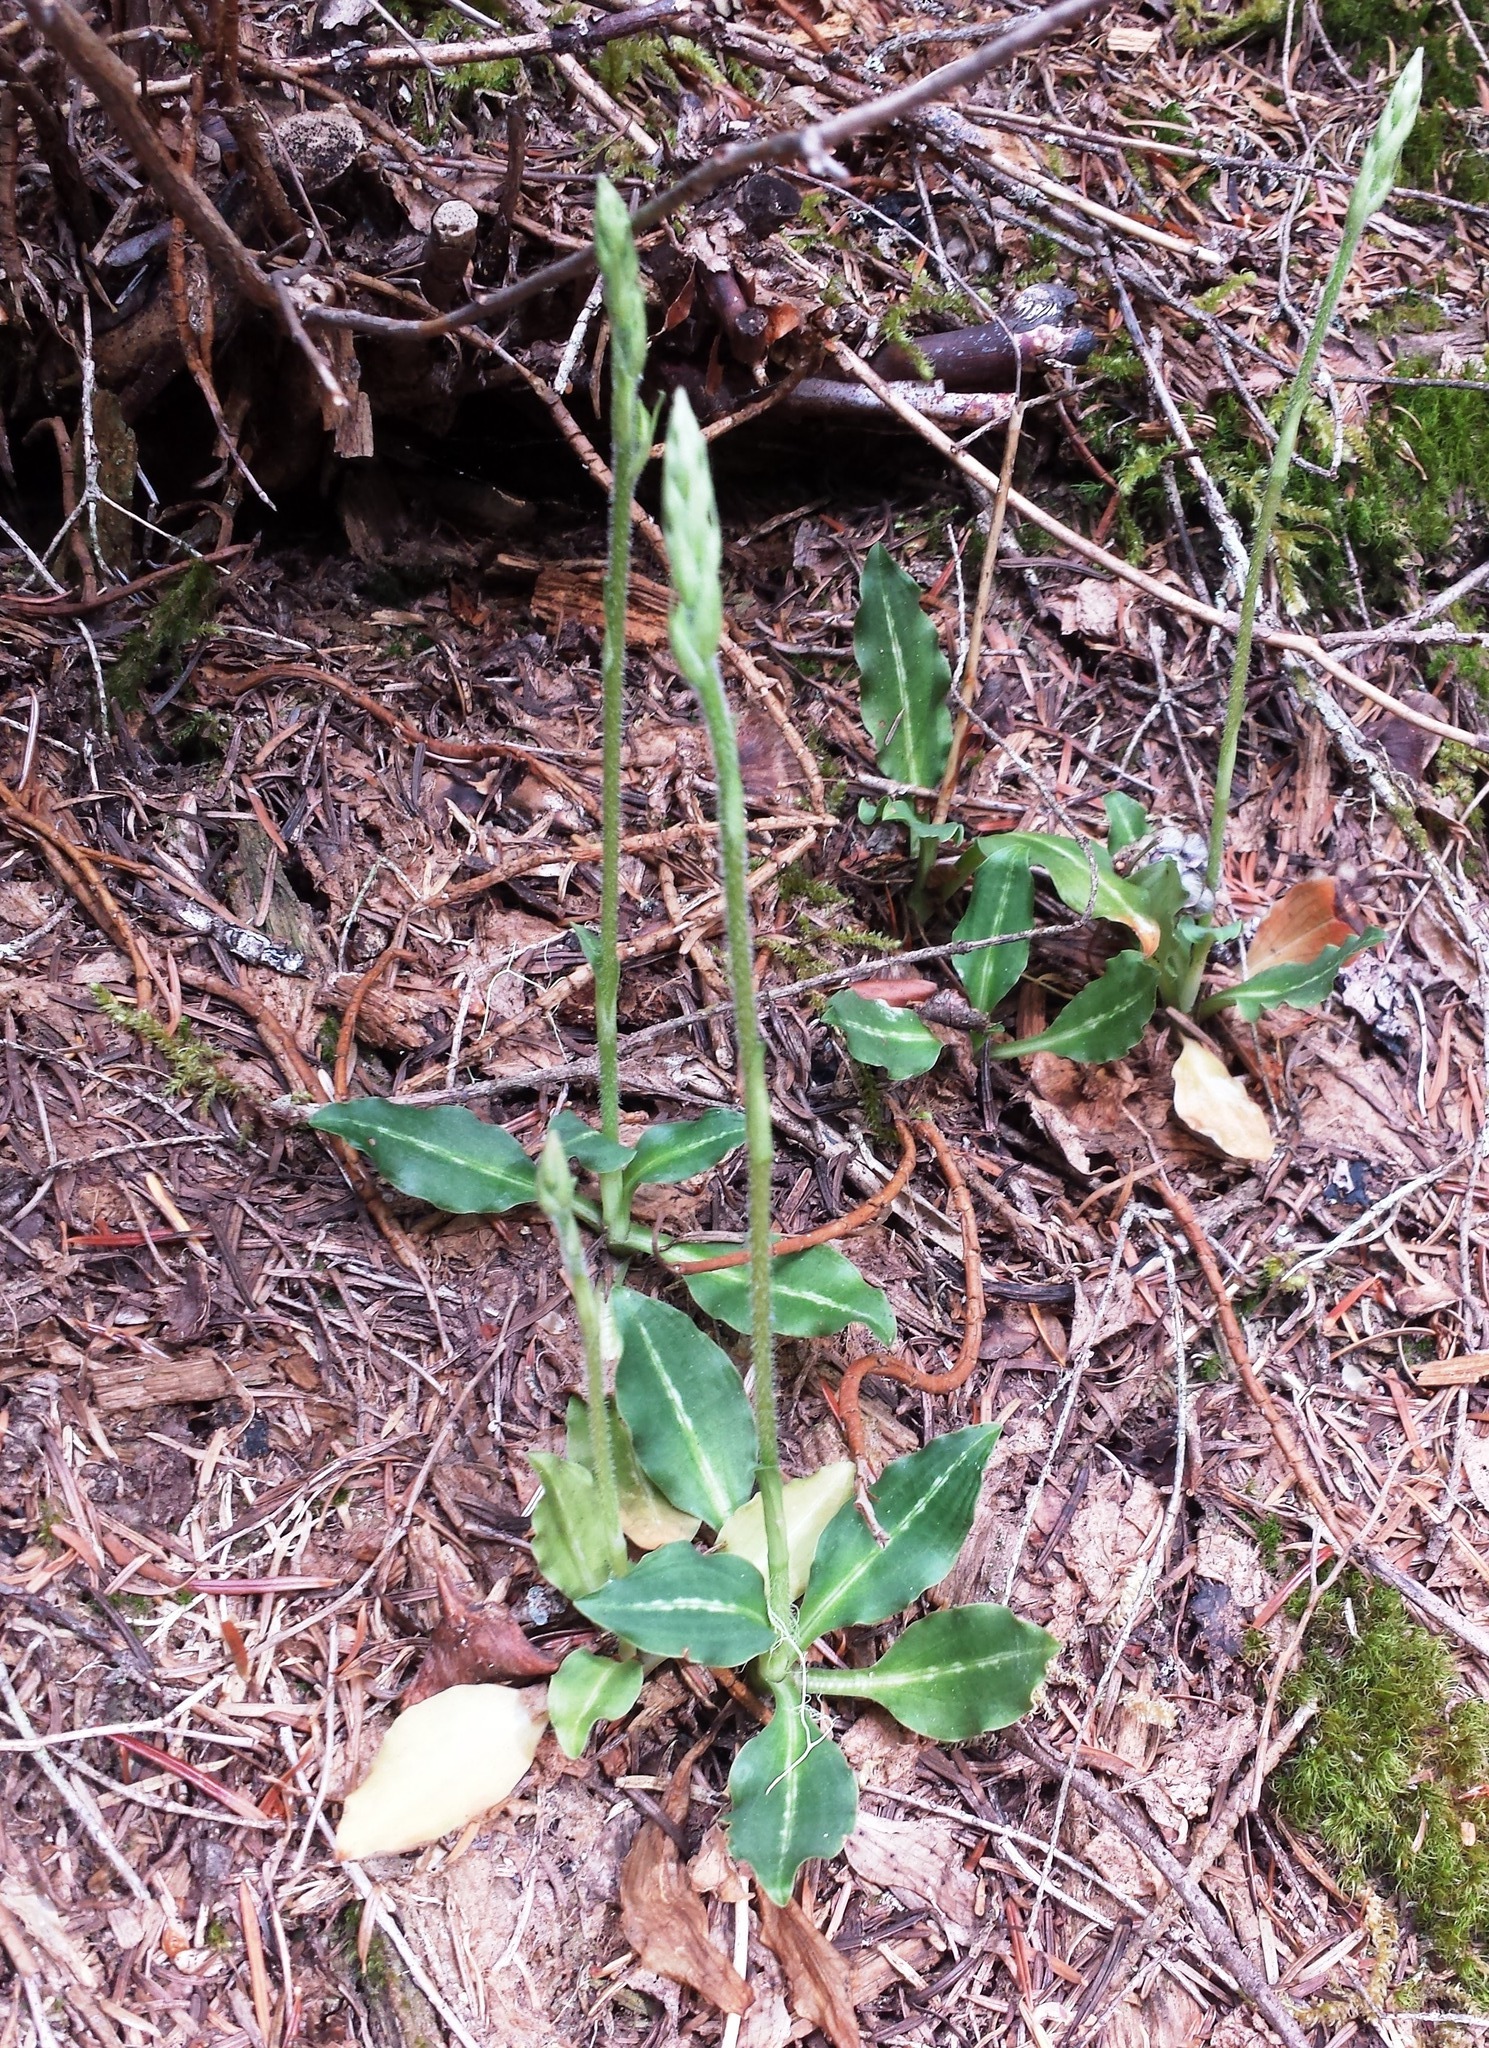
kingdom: Plantae
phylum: Tracheophyta
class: Liliopsida
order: Asparagales
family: Orchidaceae
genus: Goodyera
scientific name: Goodyera oblongifolia
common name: Giant rattlesnake-plantain
